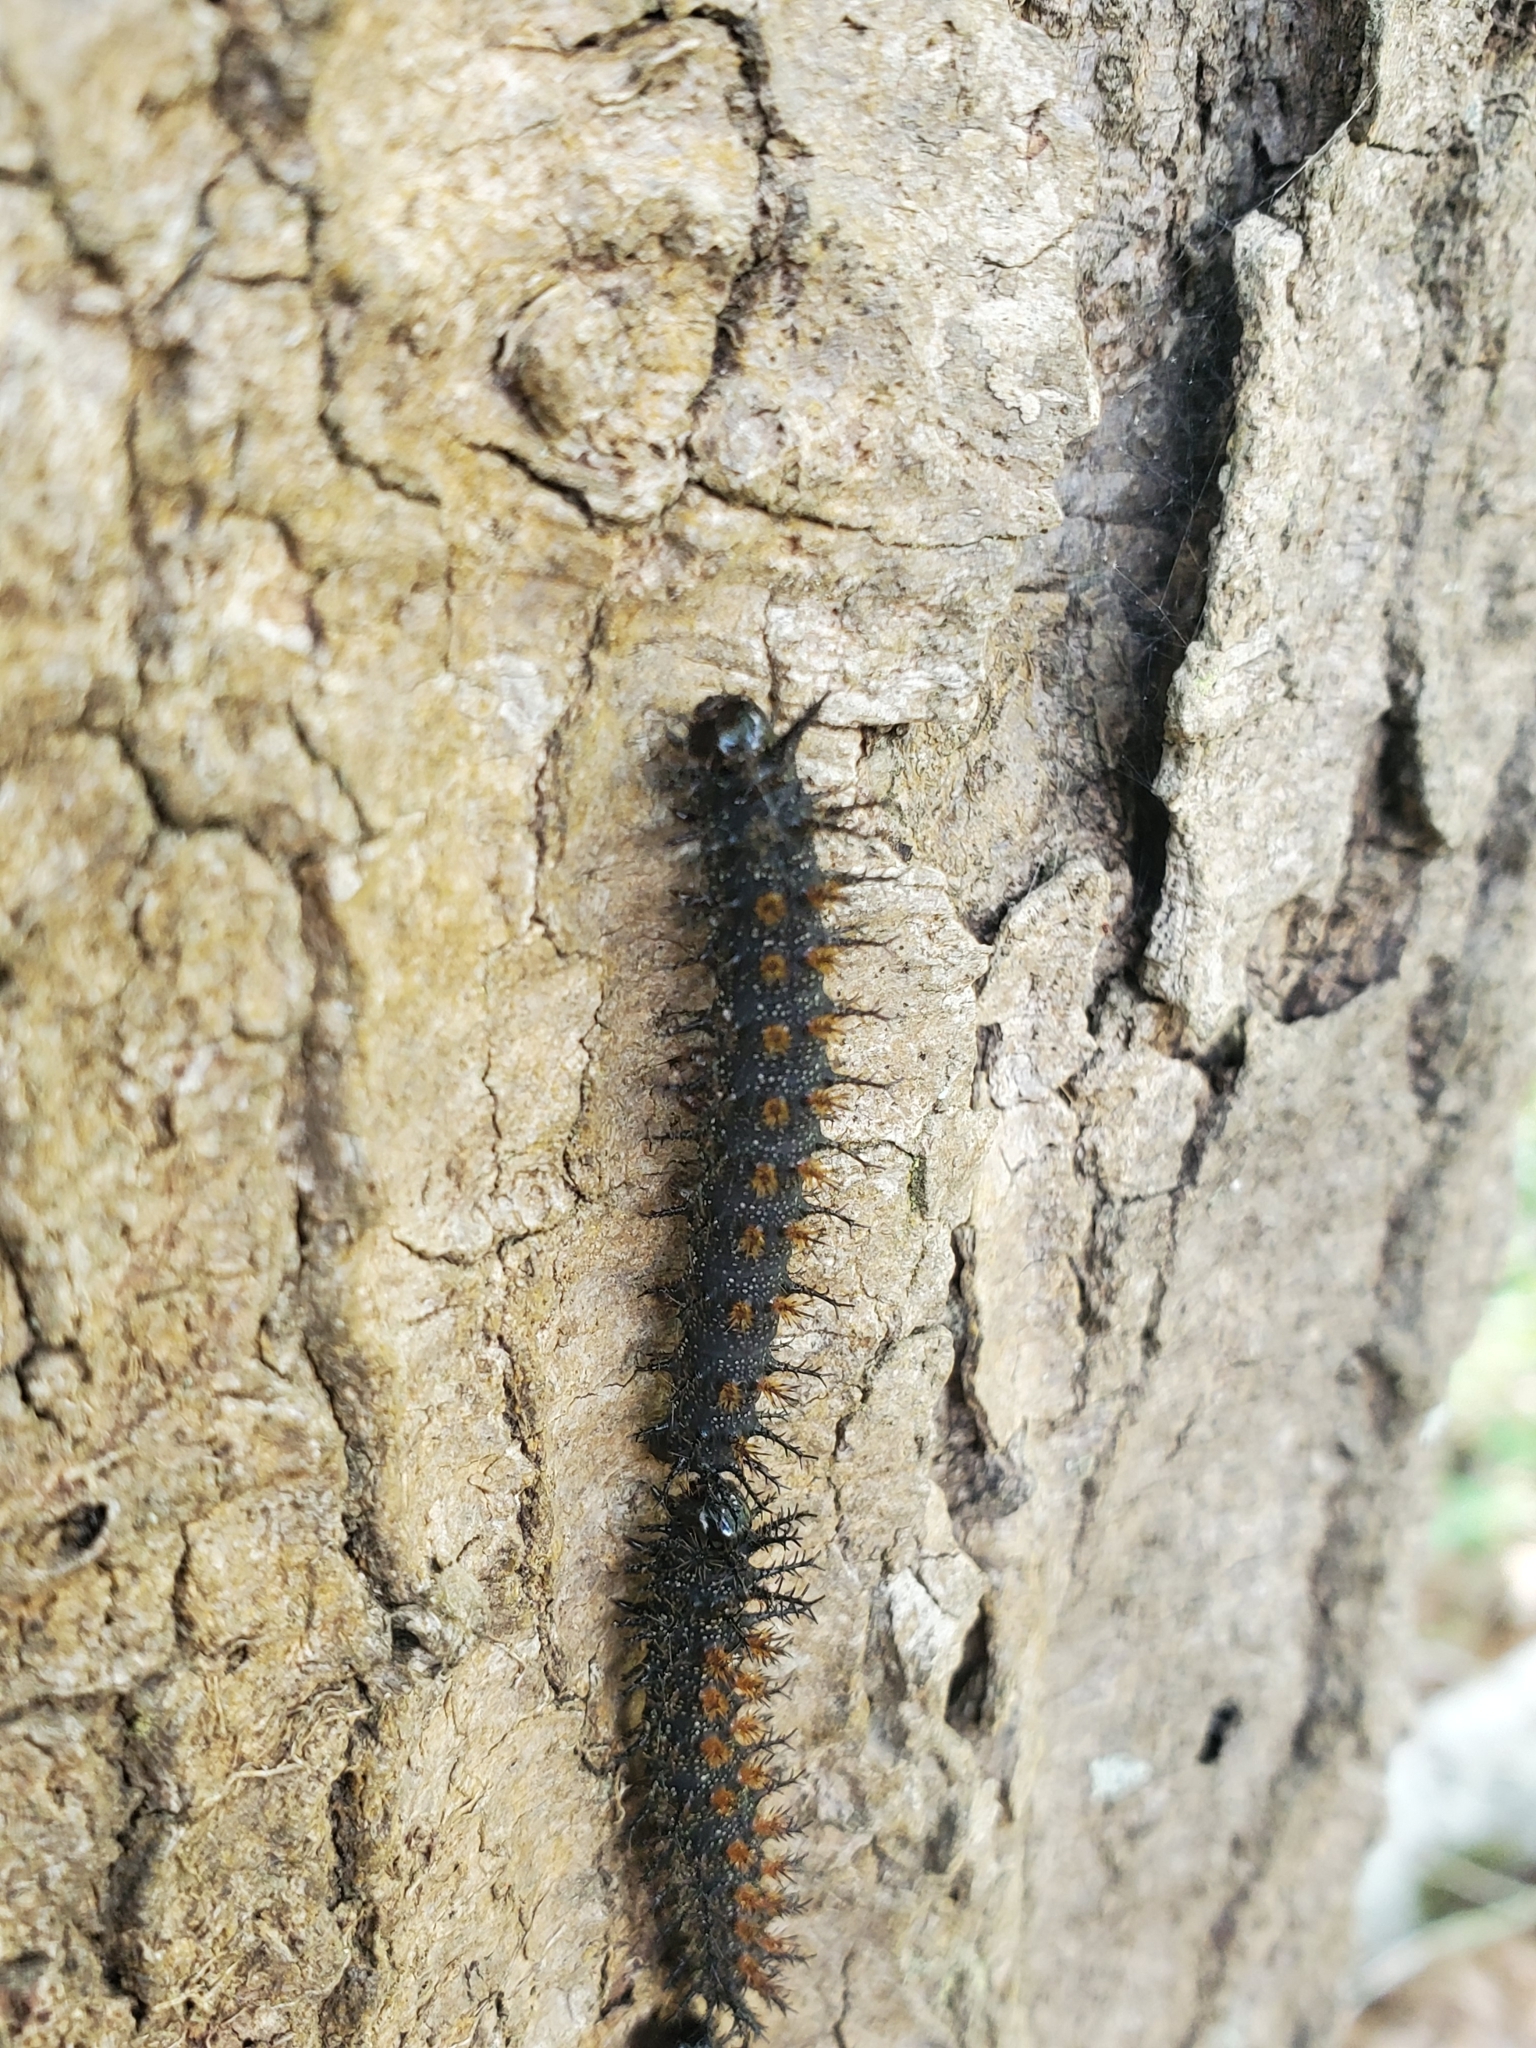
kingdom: Animalia
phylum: Arthropoda
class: Insecta
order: Lepidoptera
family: Saturniidae
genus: Hemileuca
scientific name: Hemileuca maia
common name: Eastern buckmoth
